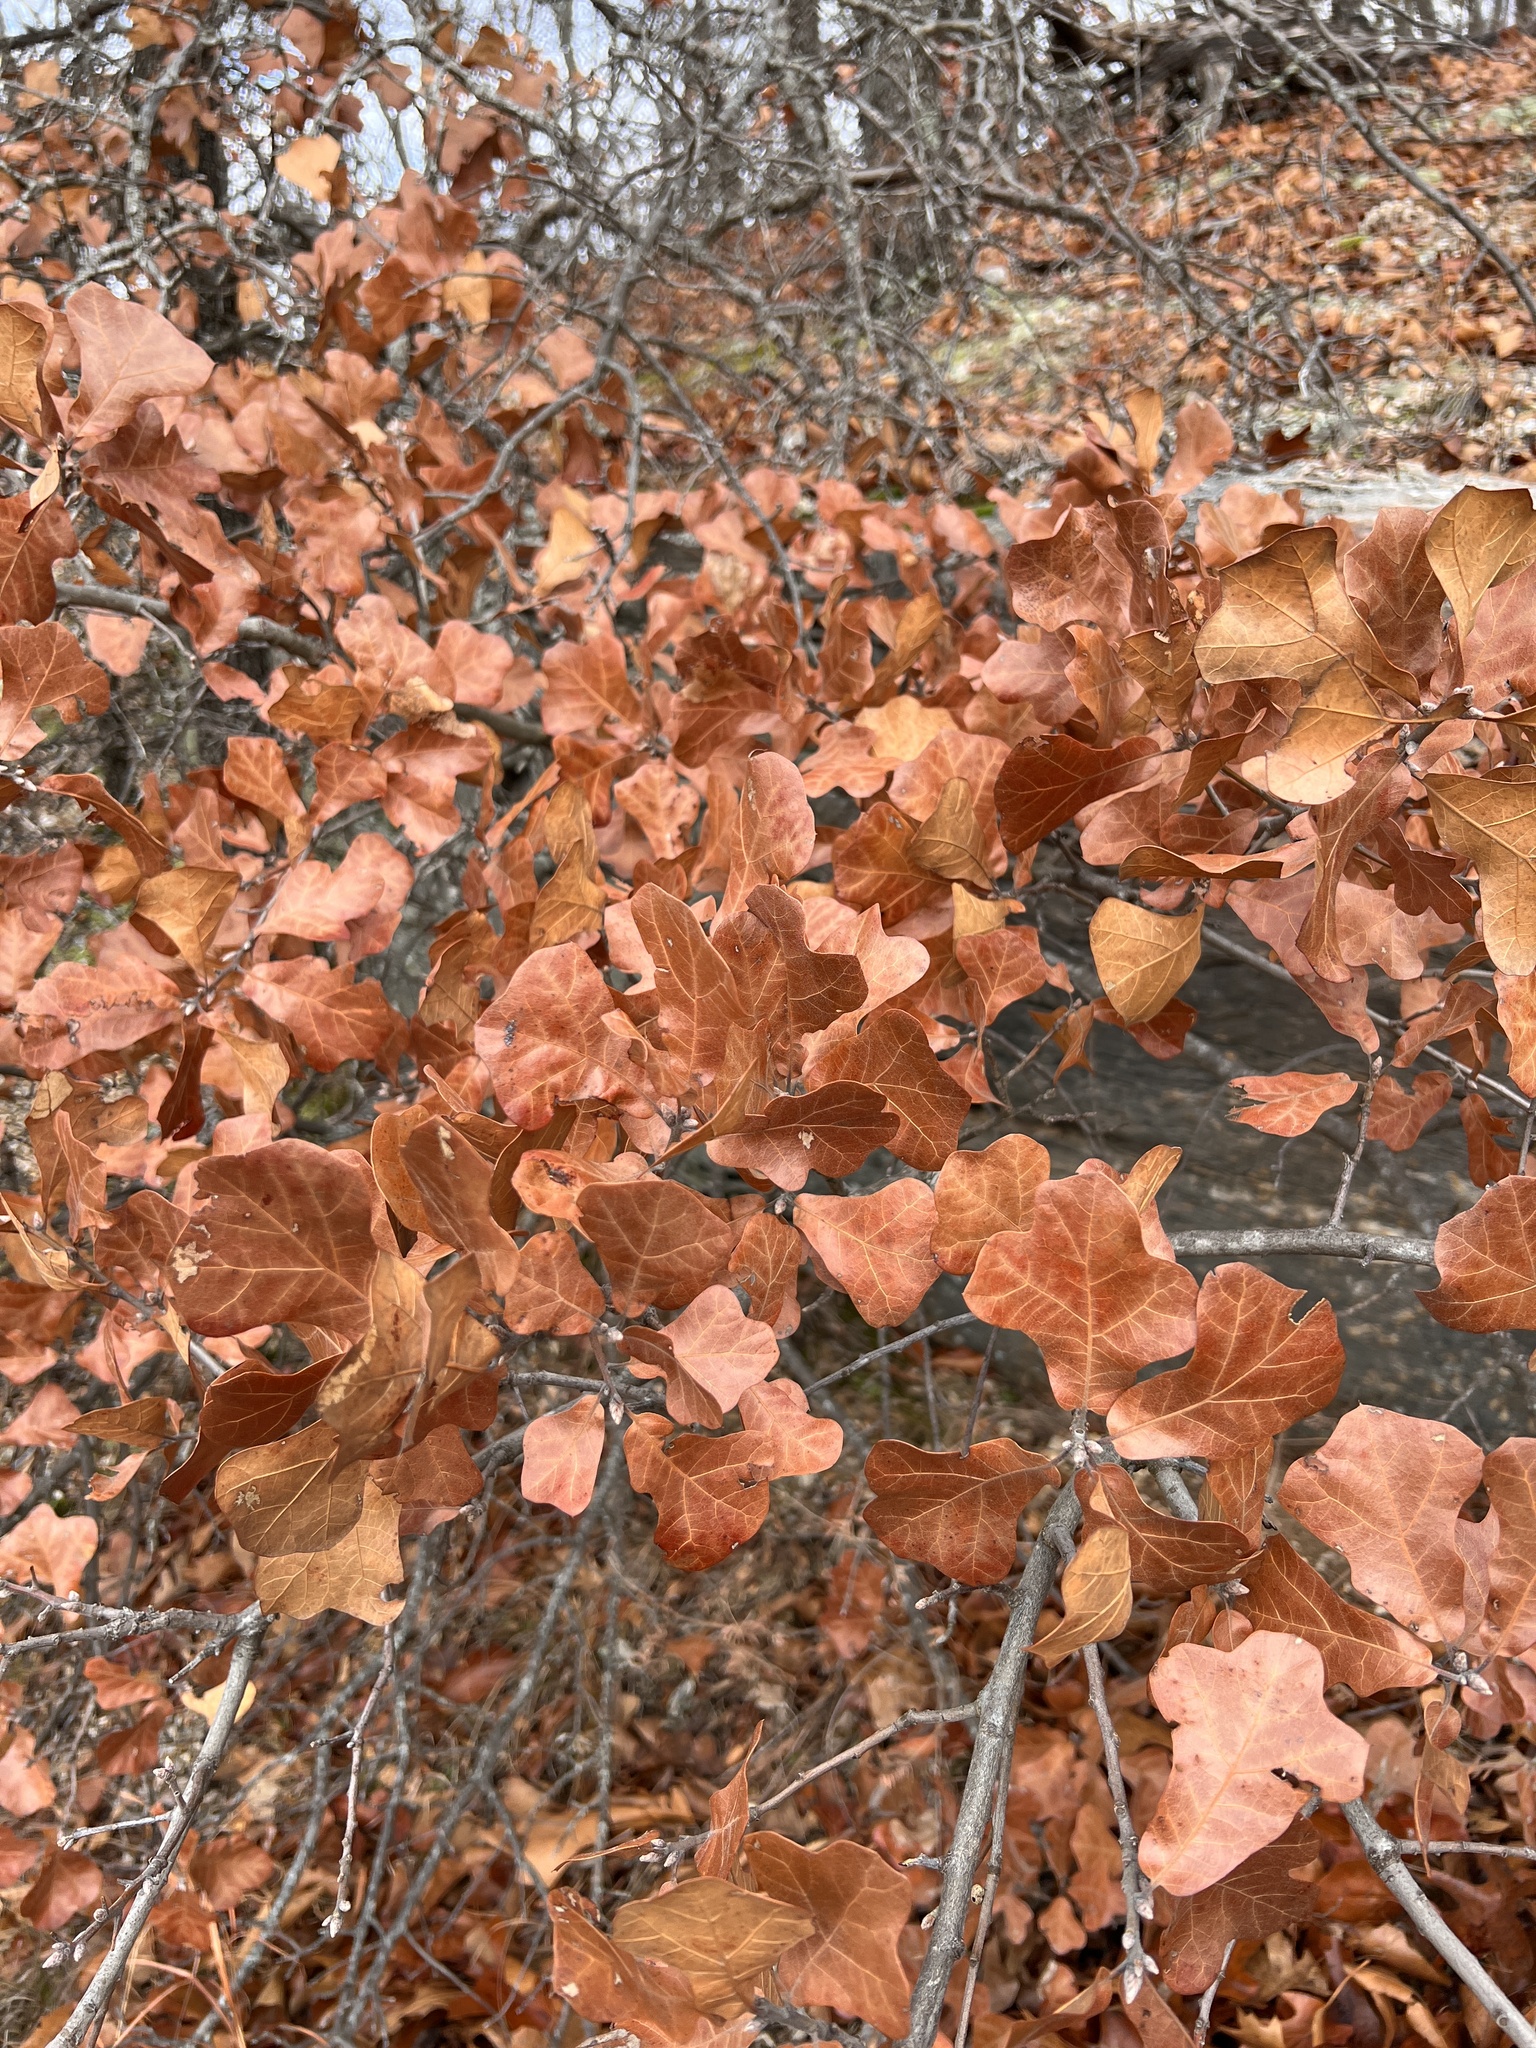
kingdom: Plantae
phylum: Tracheophyta
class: Magnoliopsida
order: Fagales
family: Fagaceae
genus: Quercus
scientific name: Quercus marilandica
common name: Blackjack oak
